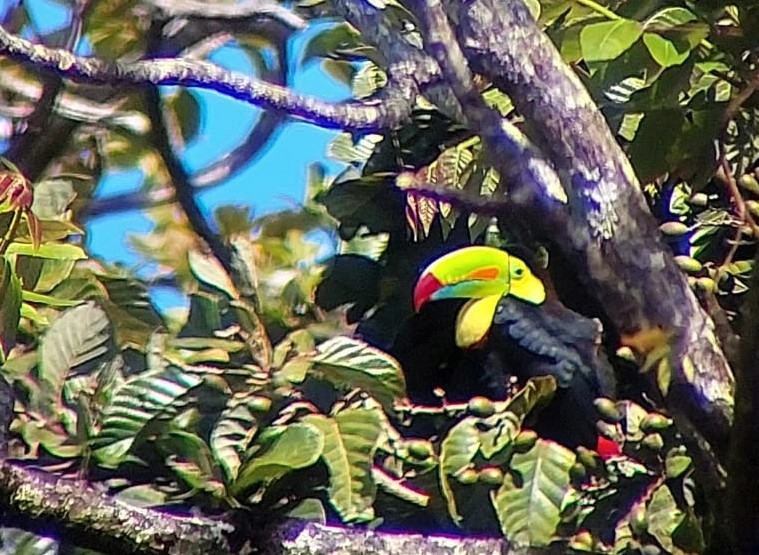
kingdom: Animalia
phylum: Chordata
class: Aves
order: Piciformes
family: Ramphastidae
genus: Ramphastos
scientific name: Ramphastos sulfuratus
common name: Keel-billed toucan
